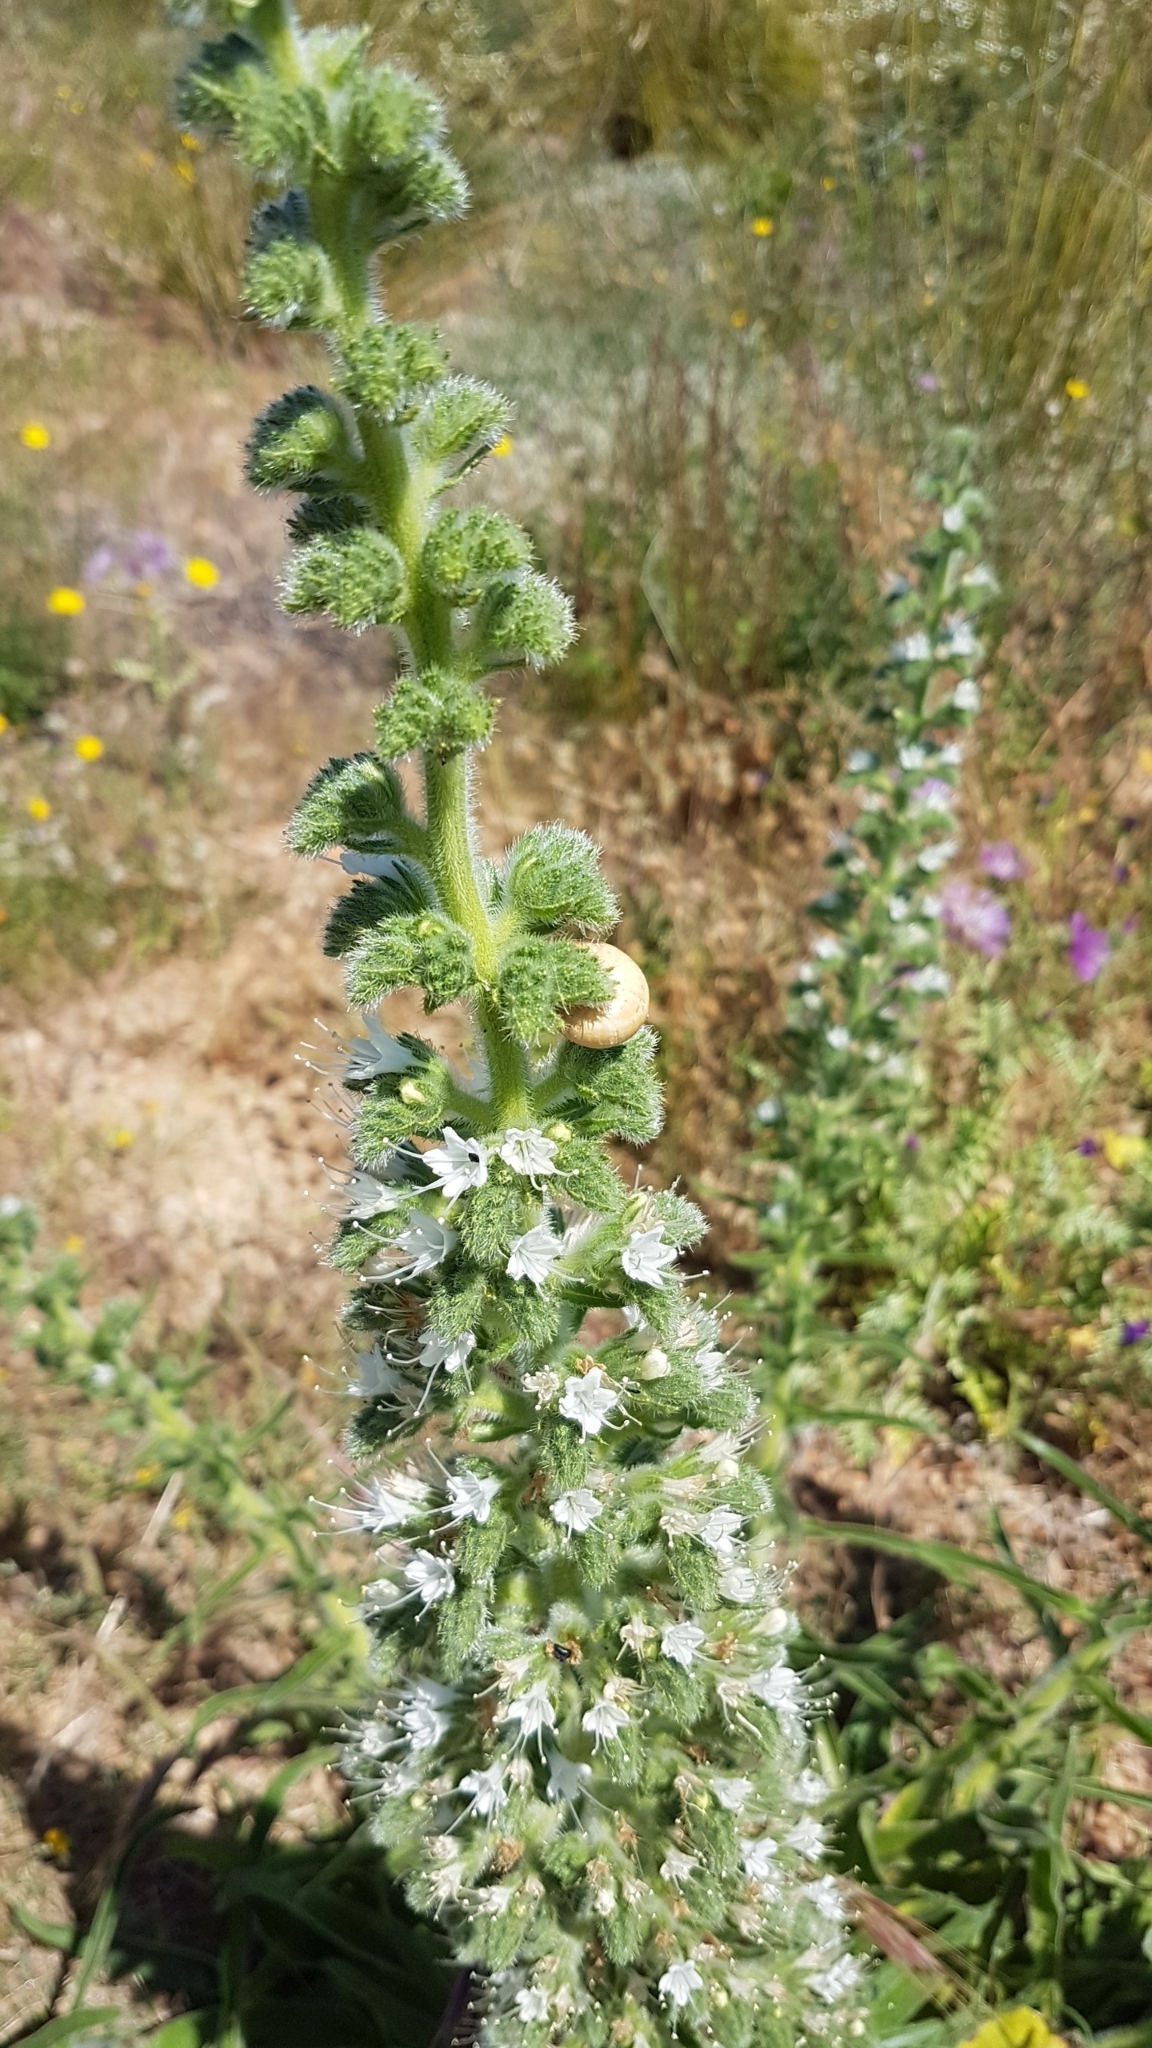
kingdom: Plantae
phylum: Tracheophyta
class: Magnoliopsida
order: Boraginales
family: Boraginaceae
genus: Echium
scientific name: Echium italicum
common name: Italian viper's bugloss
